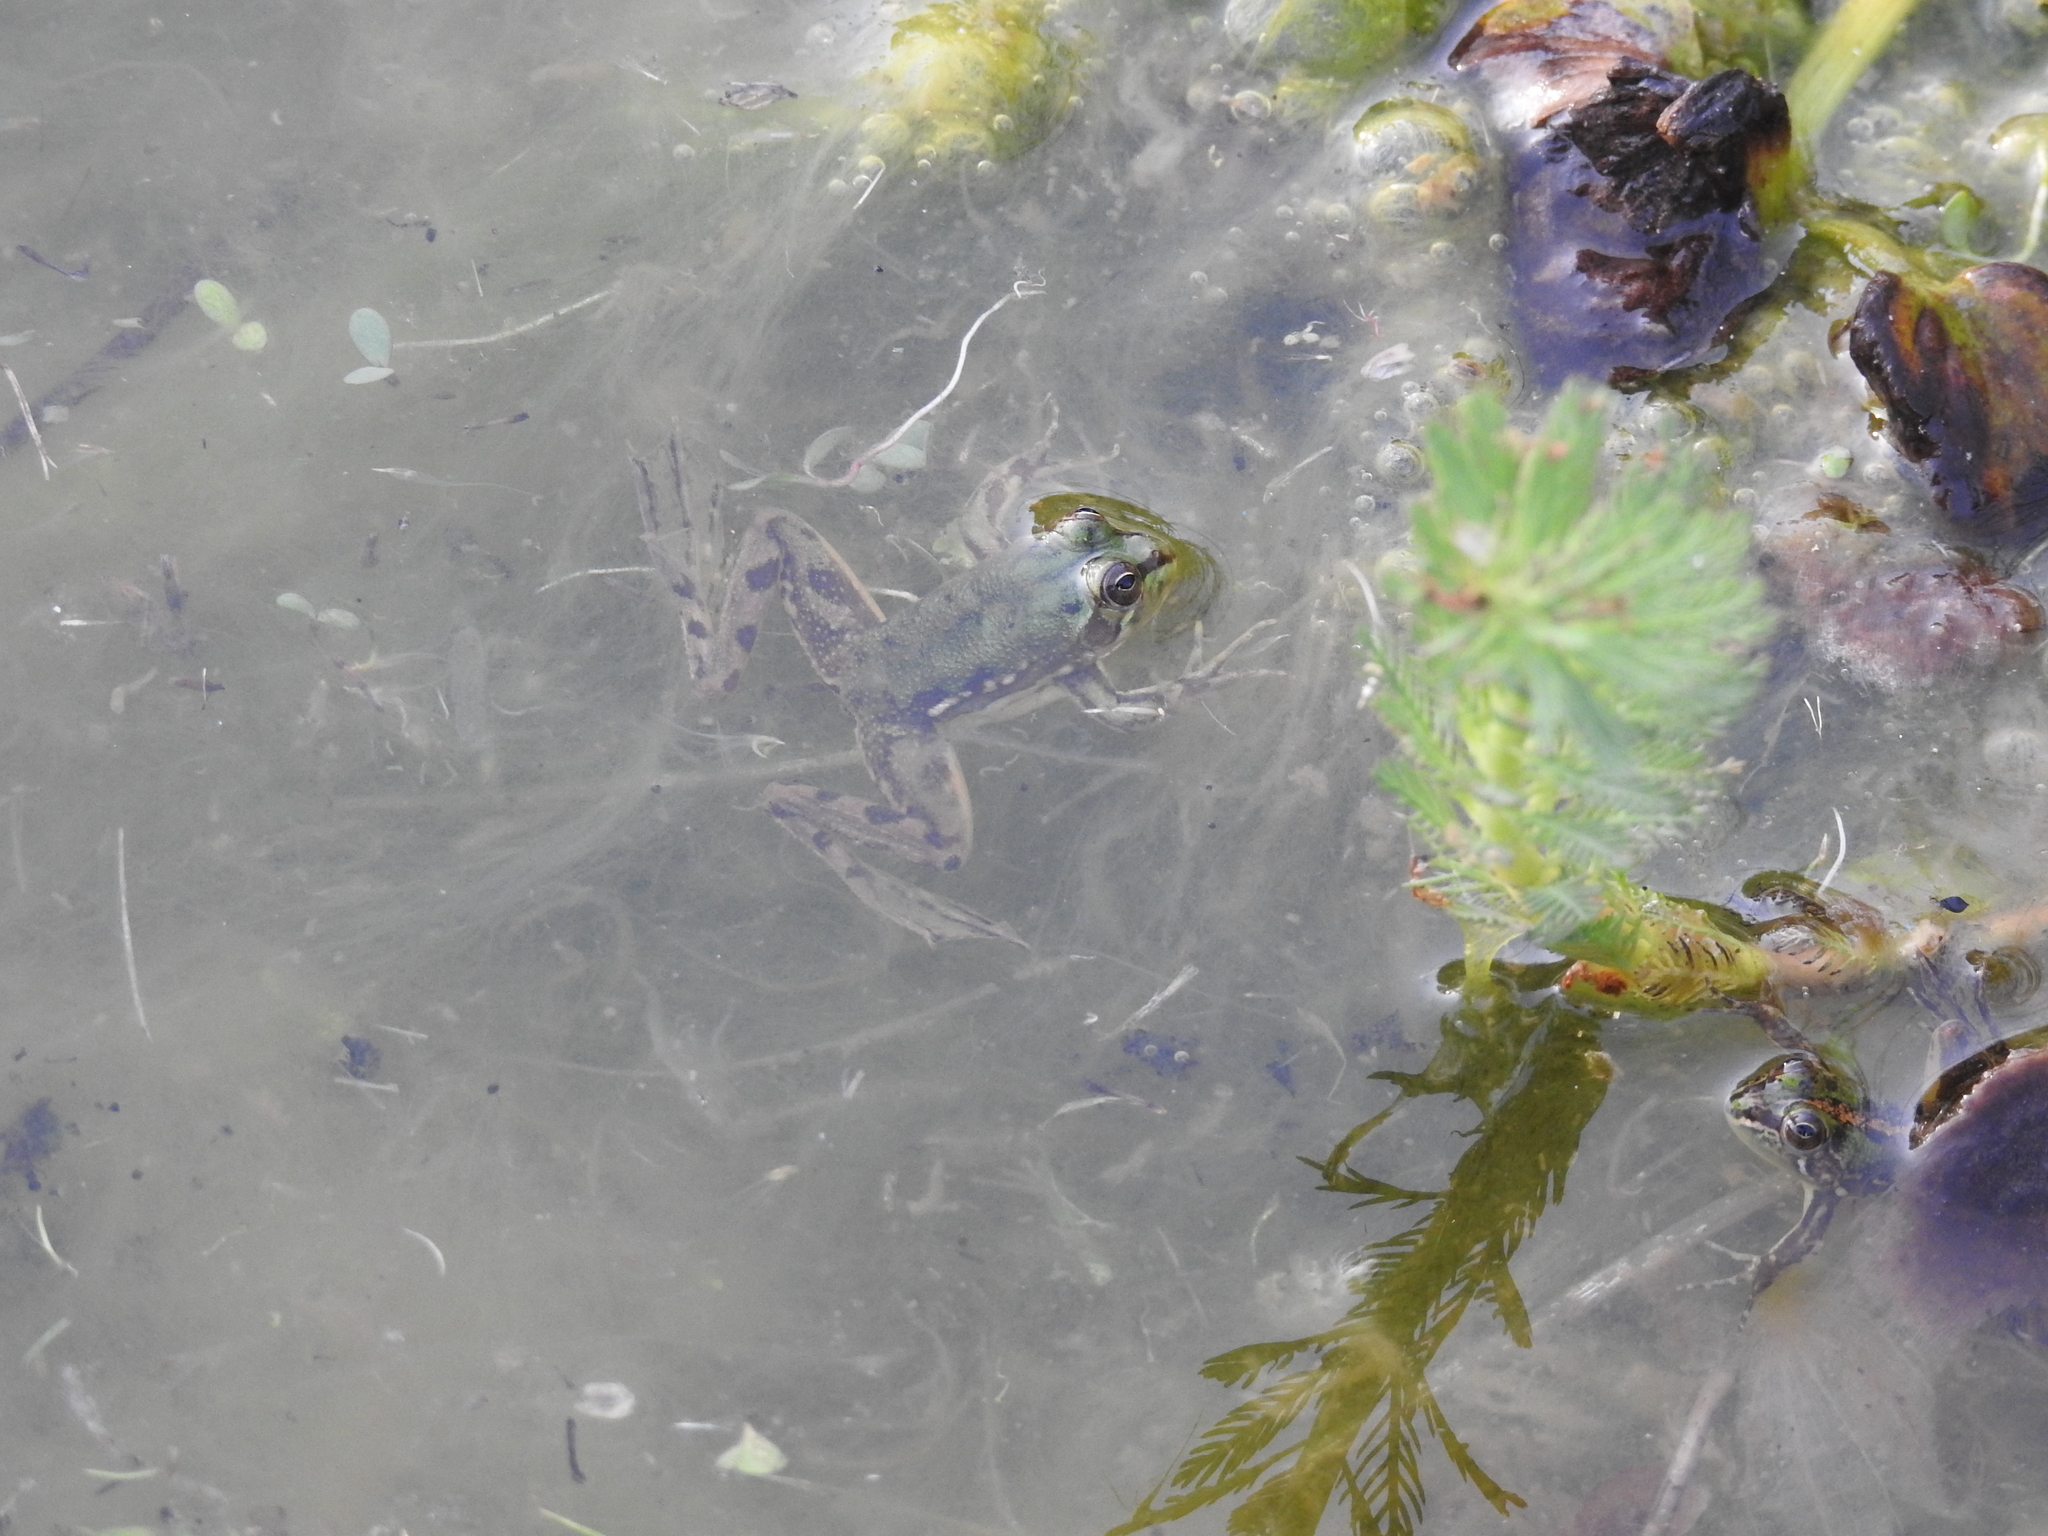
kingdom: Animalia
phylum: Chordata
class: Amphibia
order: Anura
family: Hylidae
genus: Pseudis
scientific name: Pseudis minuta
